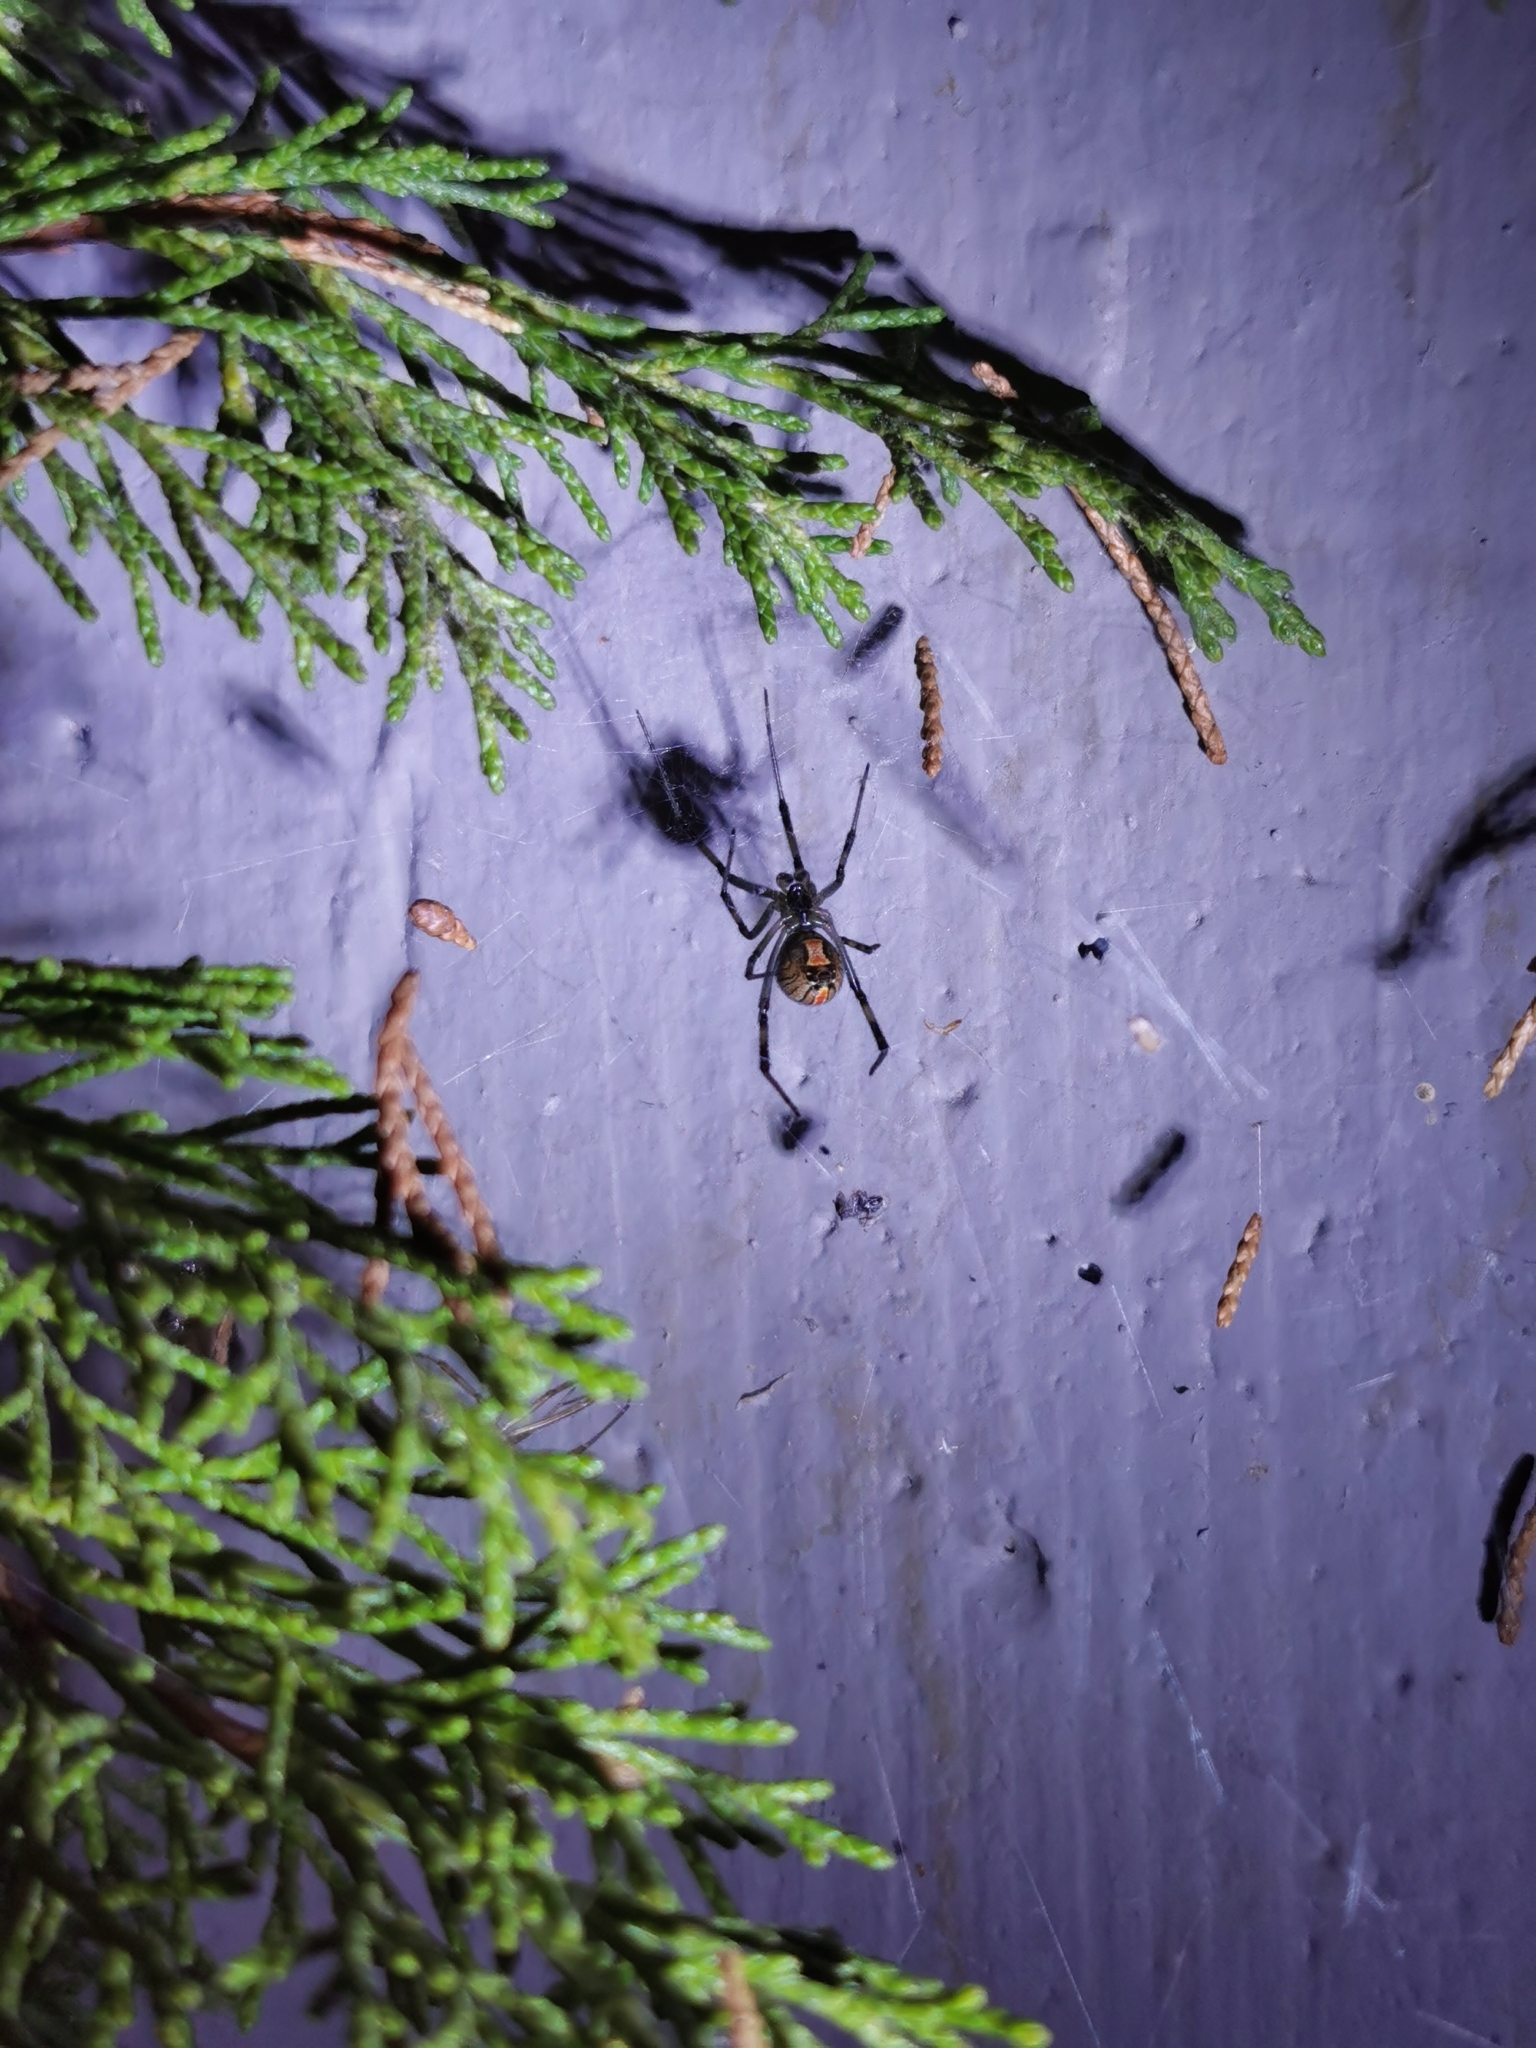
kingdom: Animalia
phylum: Arthropoda
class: Arachnida
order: Araneae
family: Theridiidae
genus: Latrodectus
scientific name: Latrodectus hesperus
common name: Western black widow
